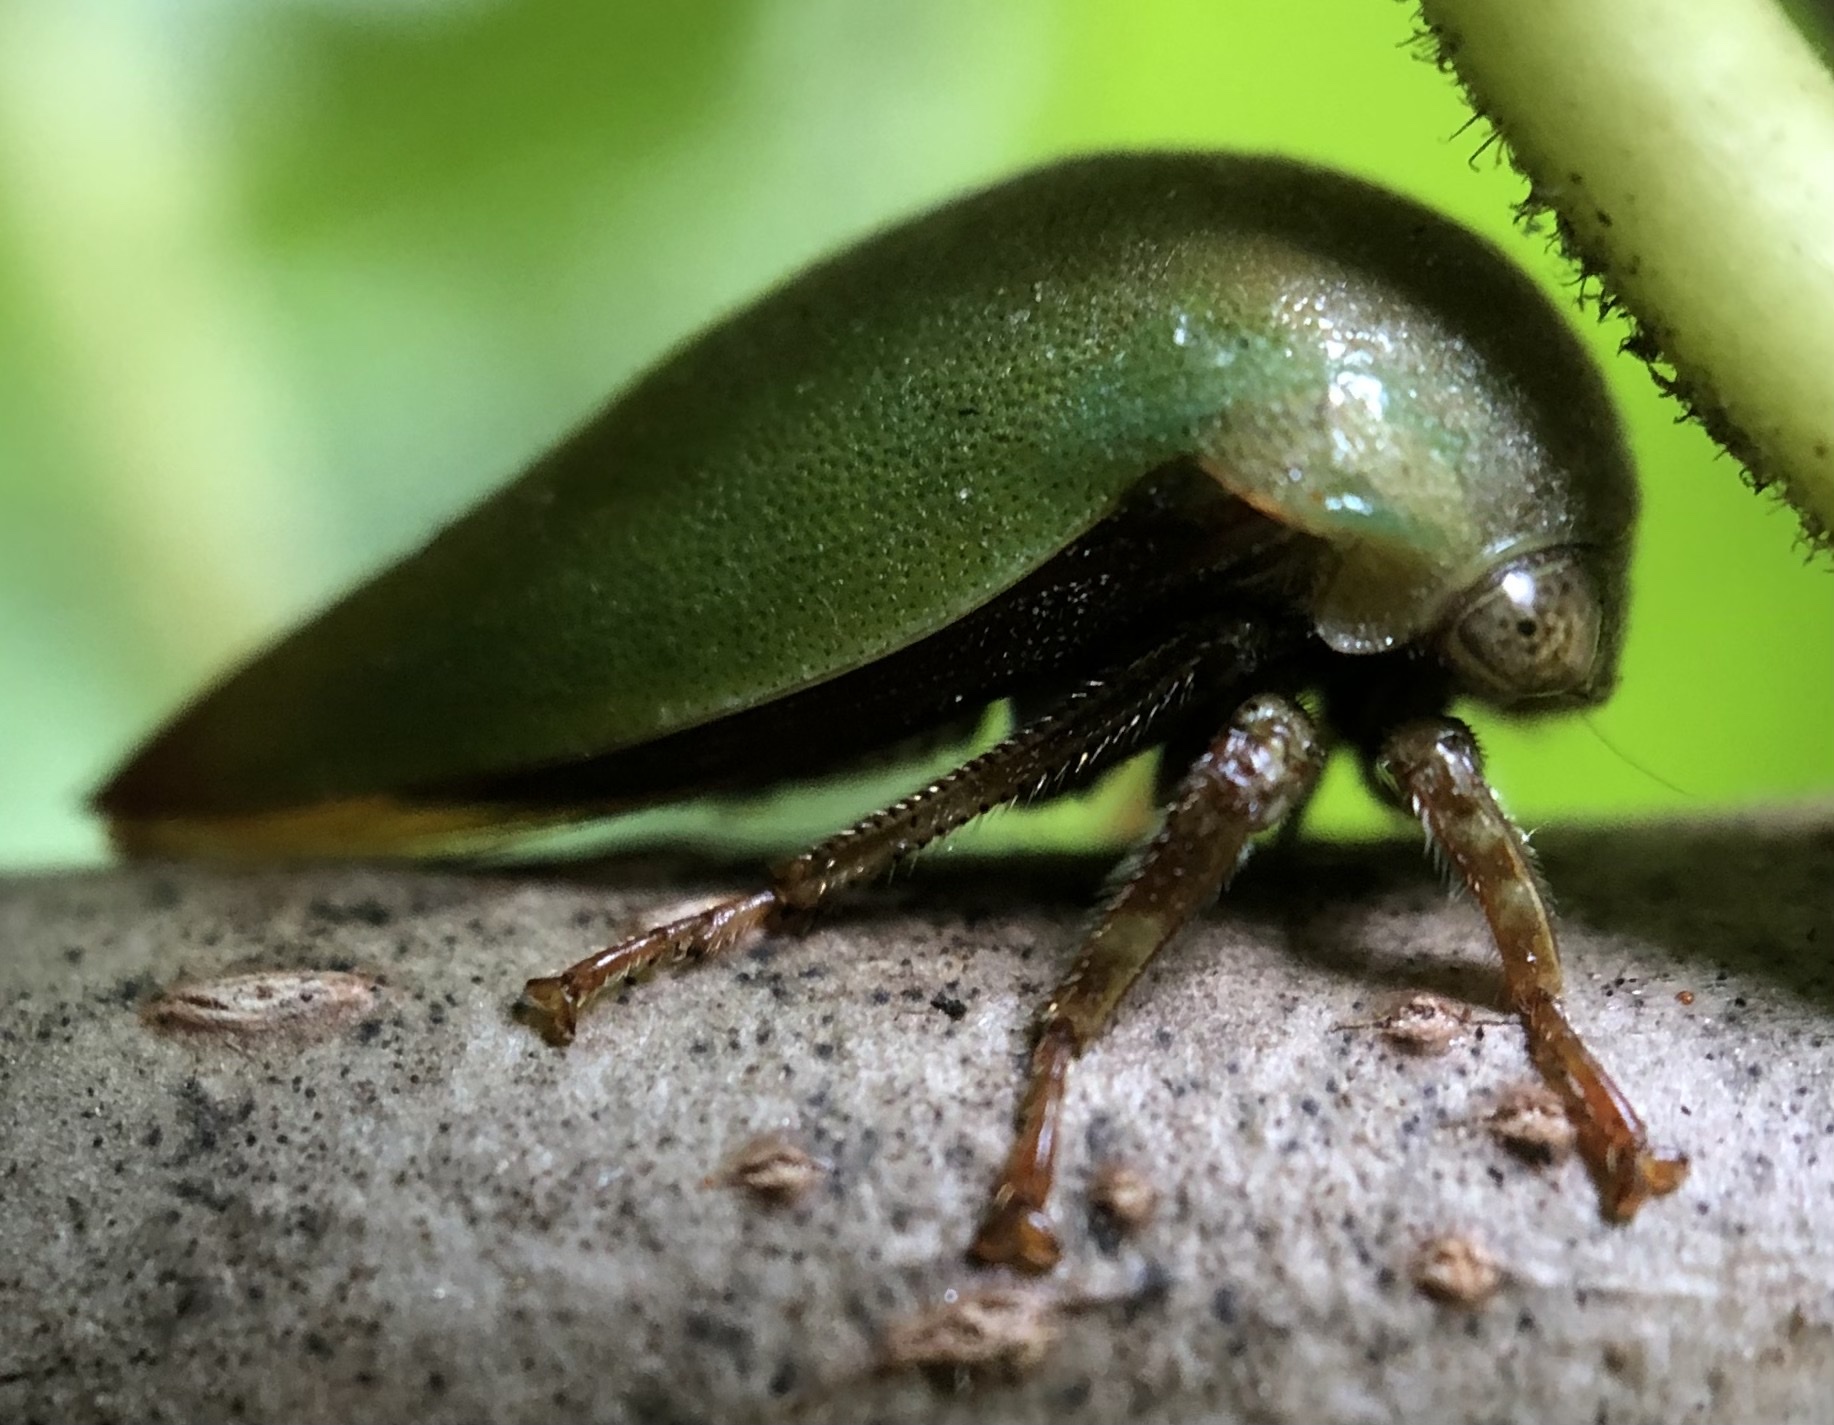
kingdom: Animalia
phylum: Arthropoda
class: Insecta
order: Hemiptera
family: Membracidae
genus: Hebetica
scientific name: Hebetica
